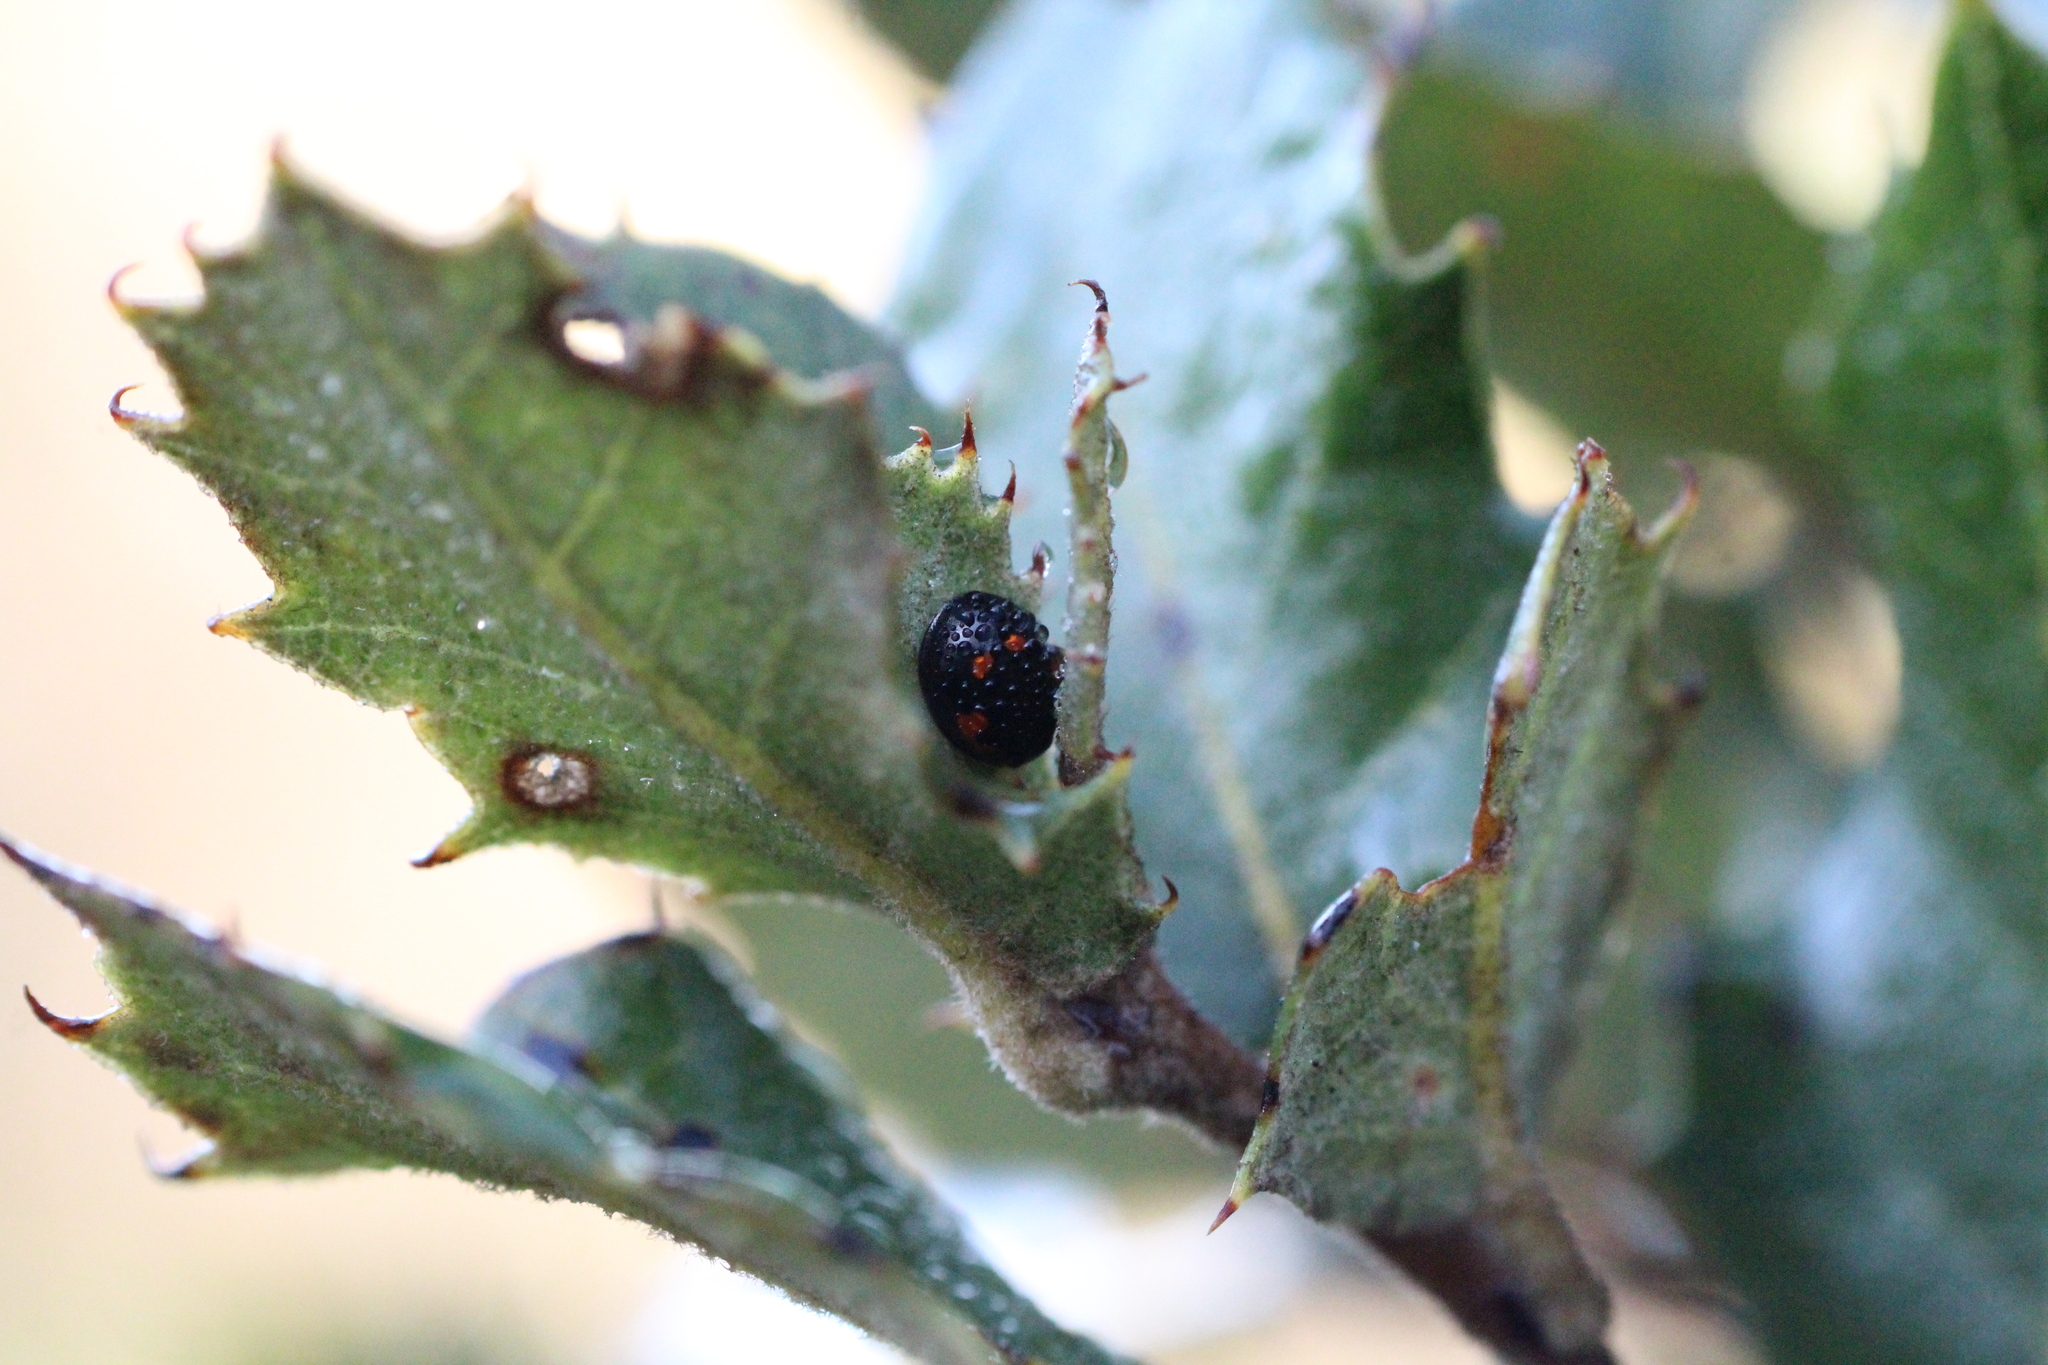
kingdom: Animalia
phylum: Arthropoda
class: Insecta
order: Coleoptera
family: Coccinellidae
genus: Brumus
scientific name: Brumus quadripustulatus
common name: Ladybird beetle
